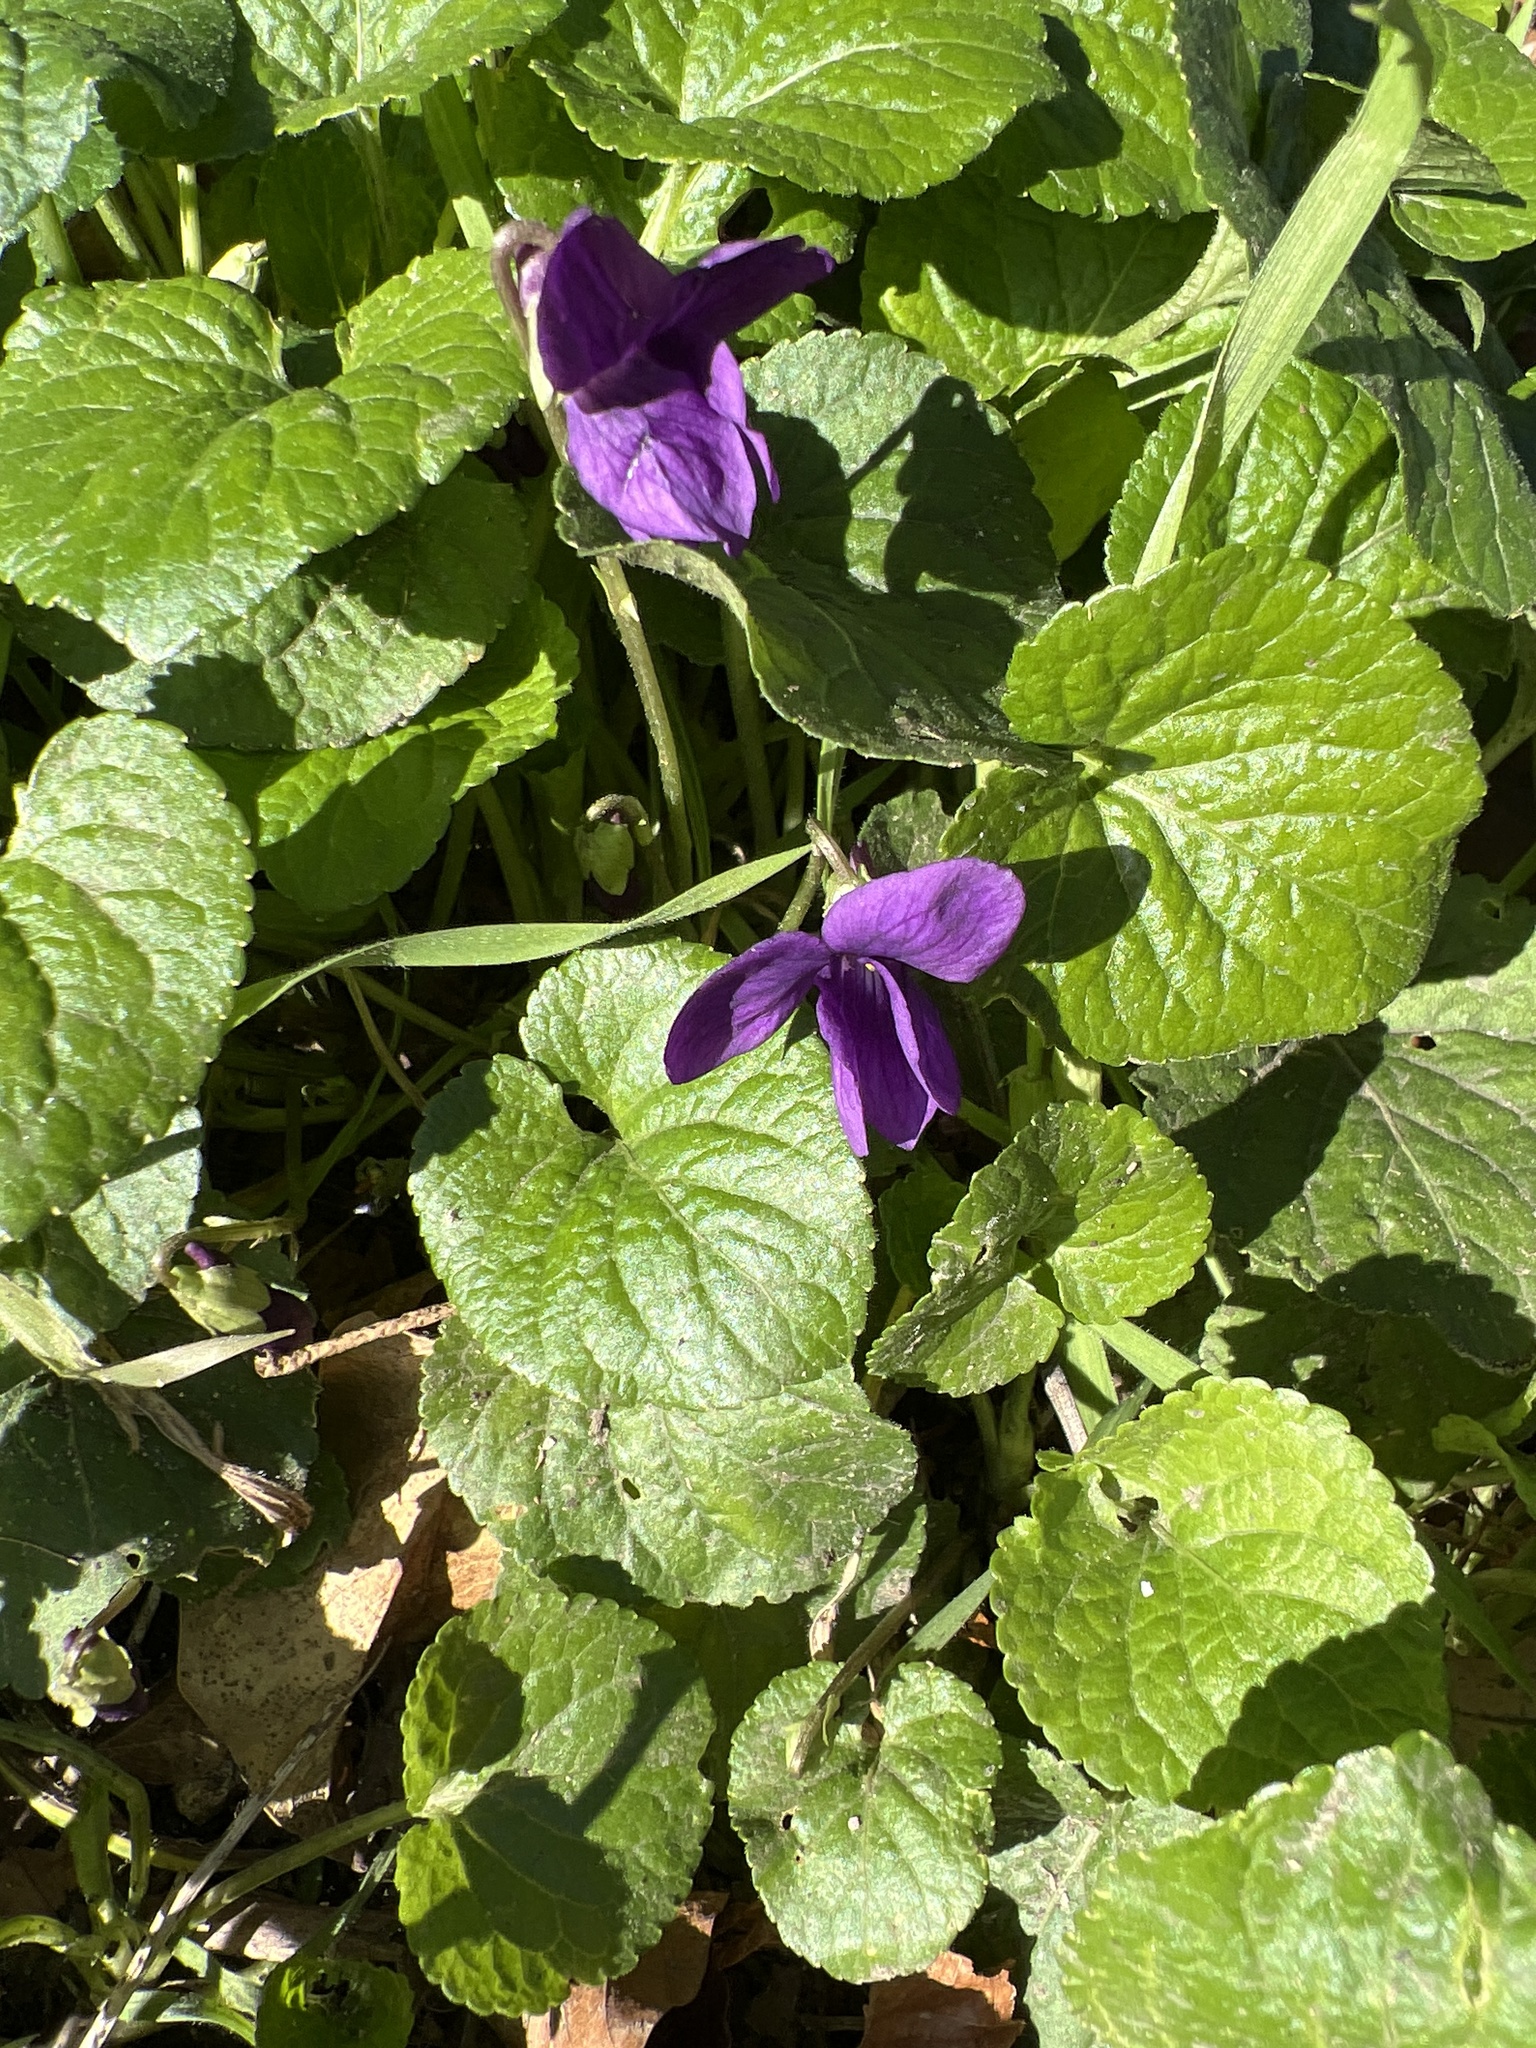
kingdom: Plantae
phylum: Tracheophyta
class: Magnoliopsida
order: Malpighiales
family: Violaceae
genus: Viola
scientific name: Viola odorata
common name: Sweet violet
